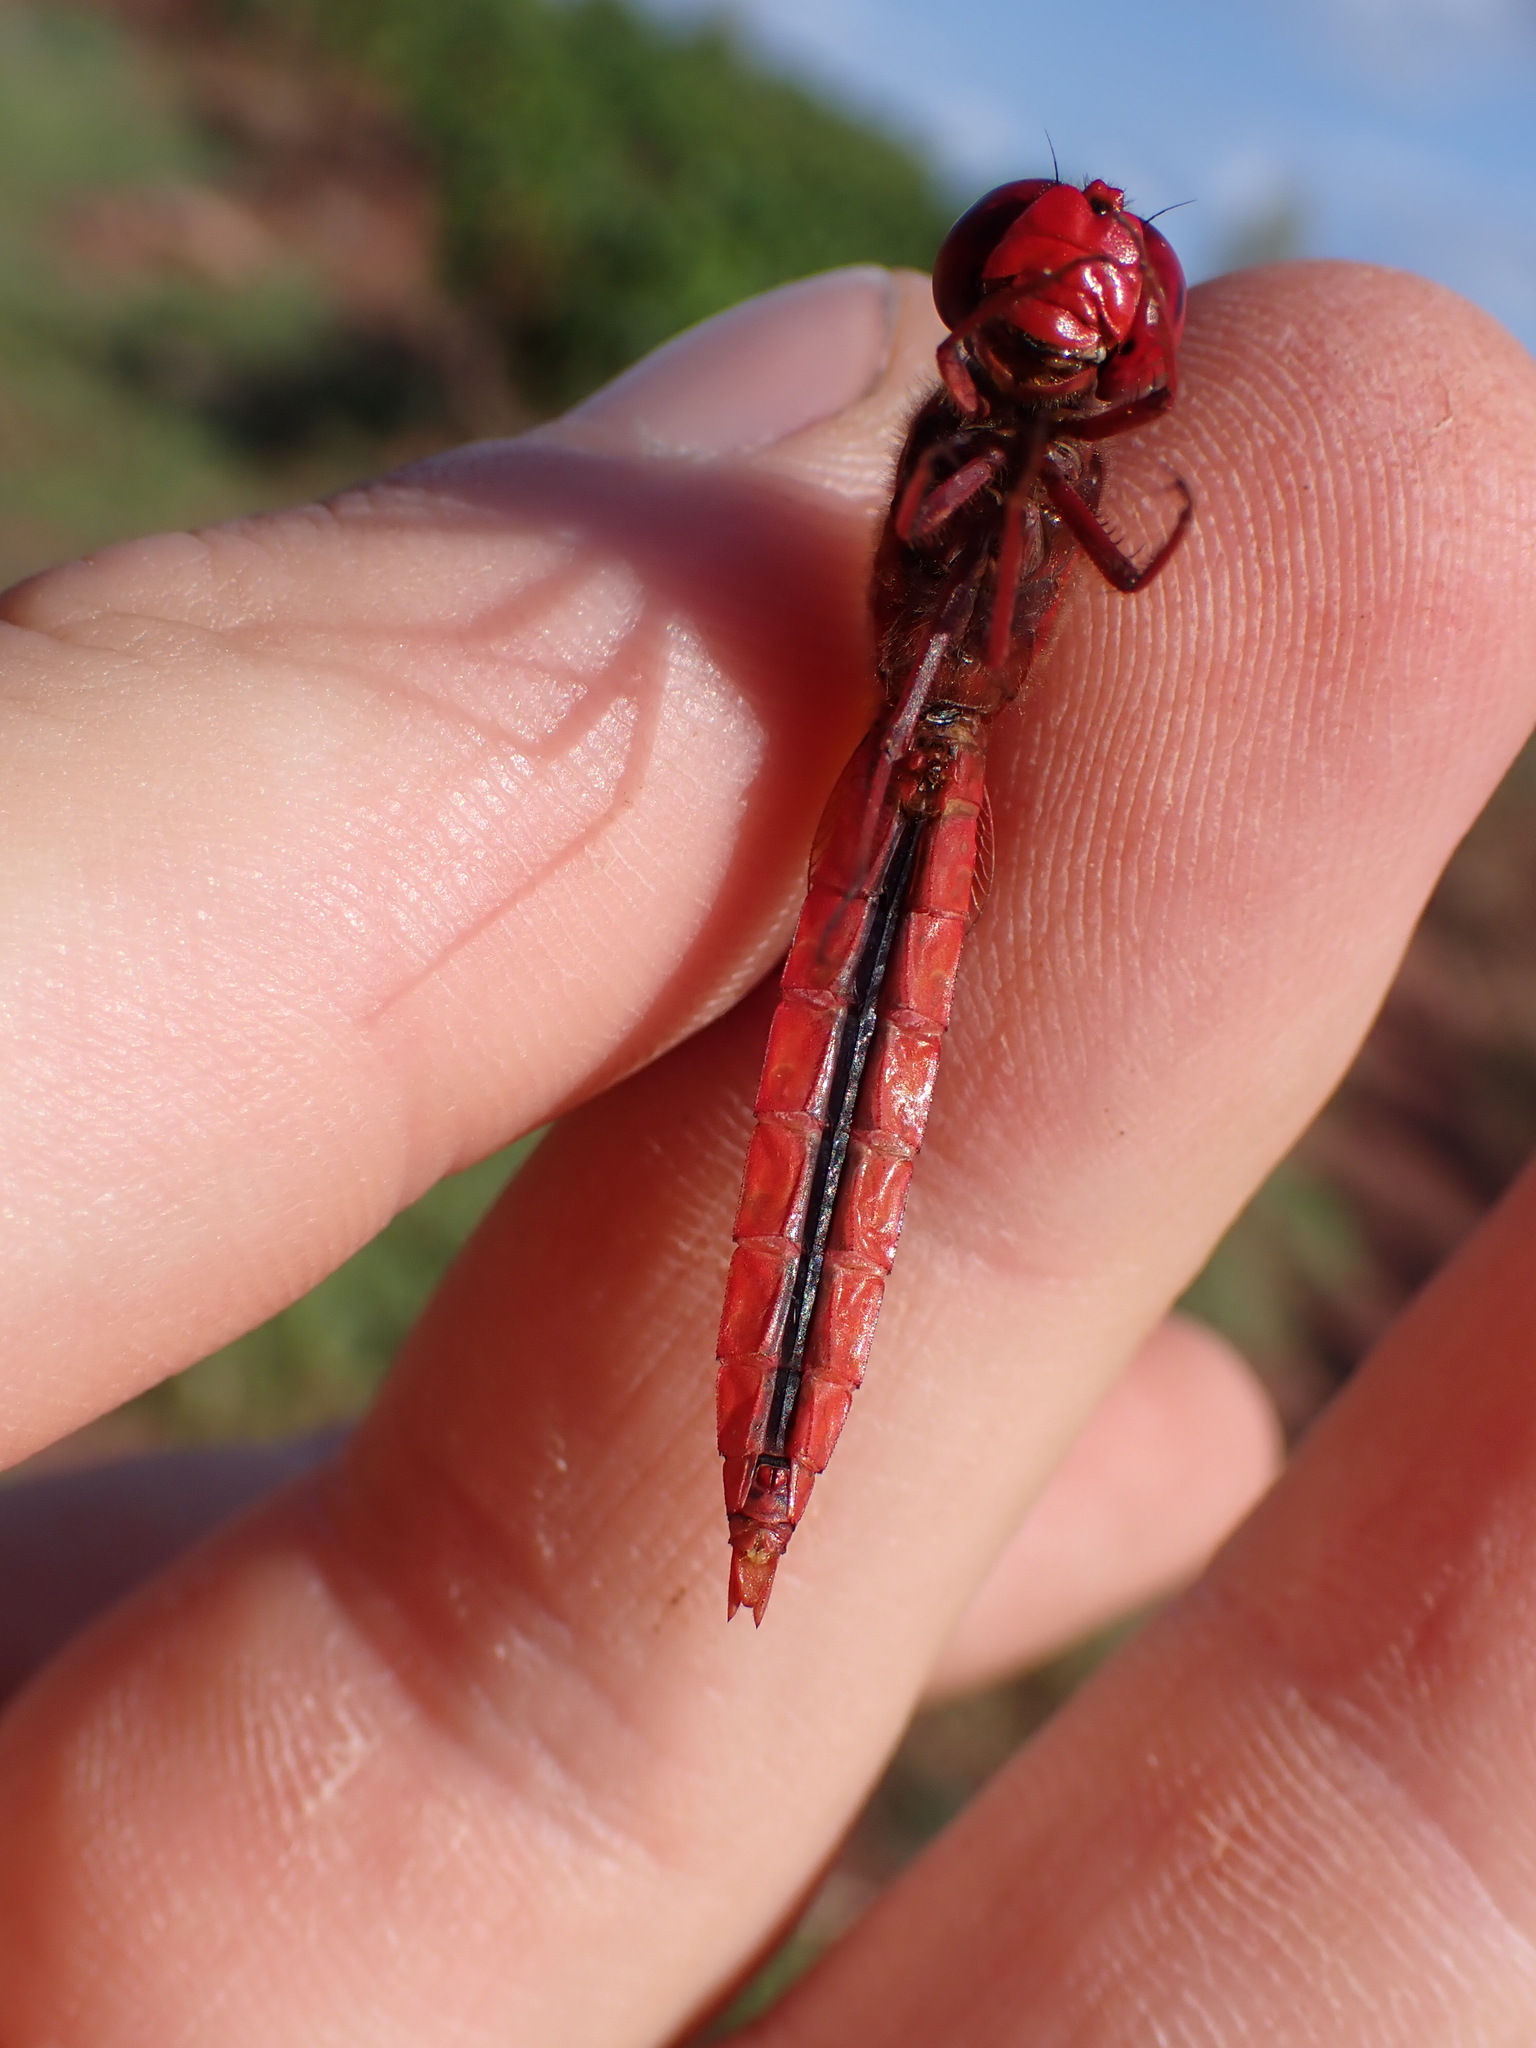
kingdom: Animalia
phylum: Arthropoda
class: Insecta
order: Odonata
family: Libellulidae
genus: Crocothemis
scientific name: Crocothemis erythraea
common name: Scarlet dragonfly
